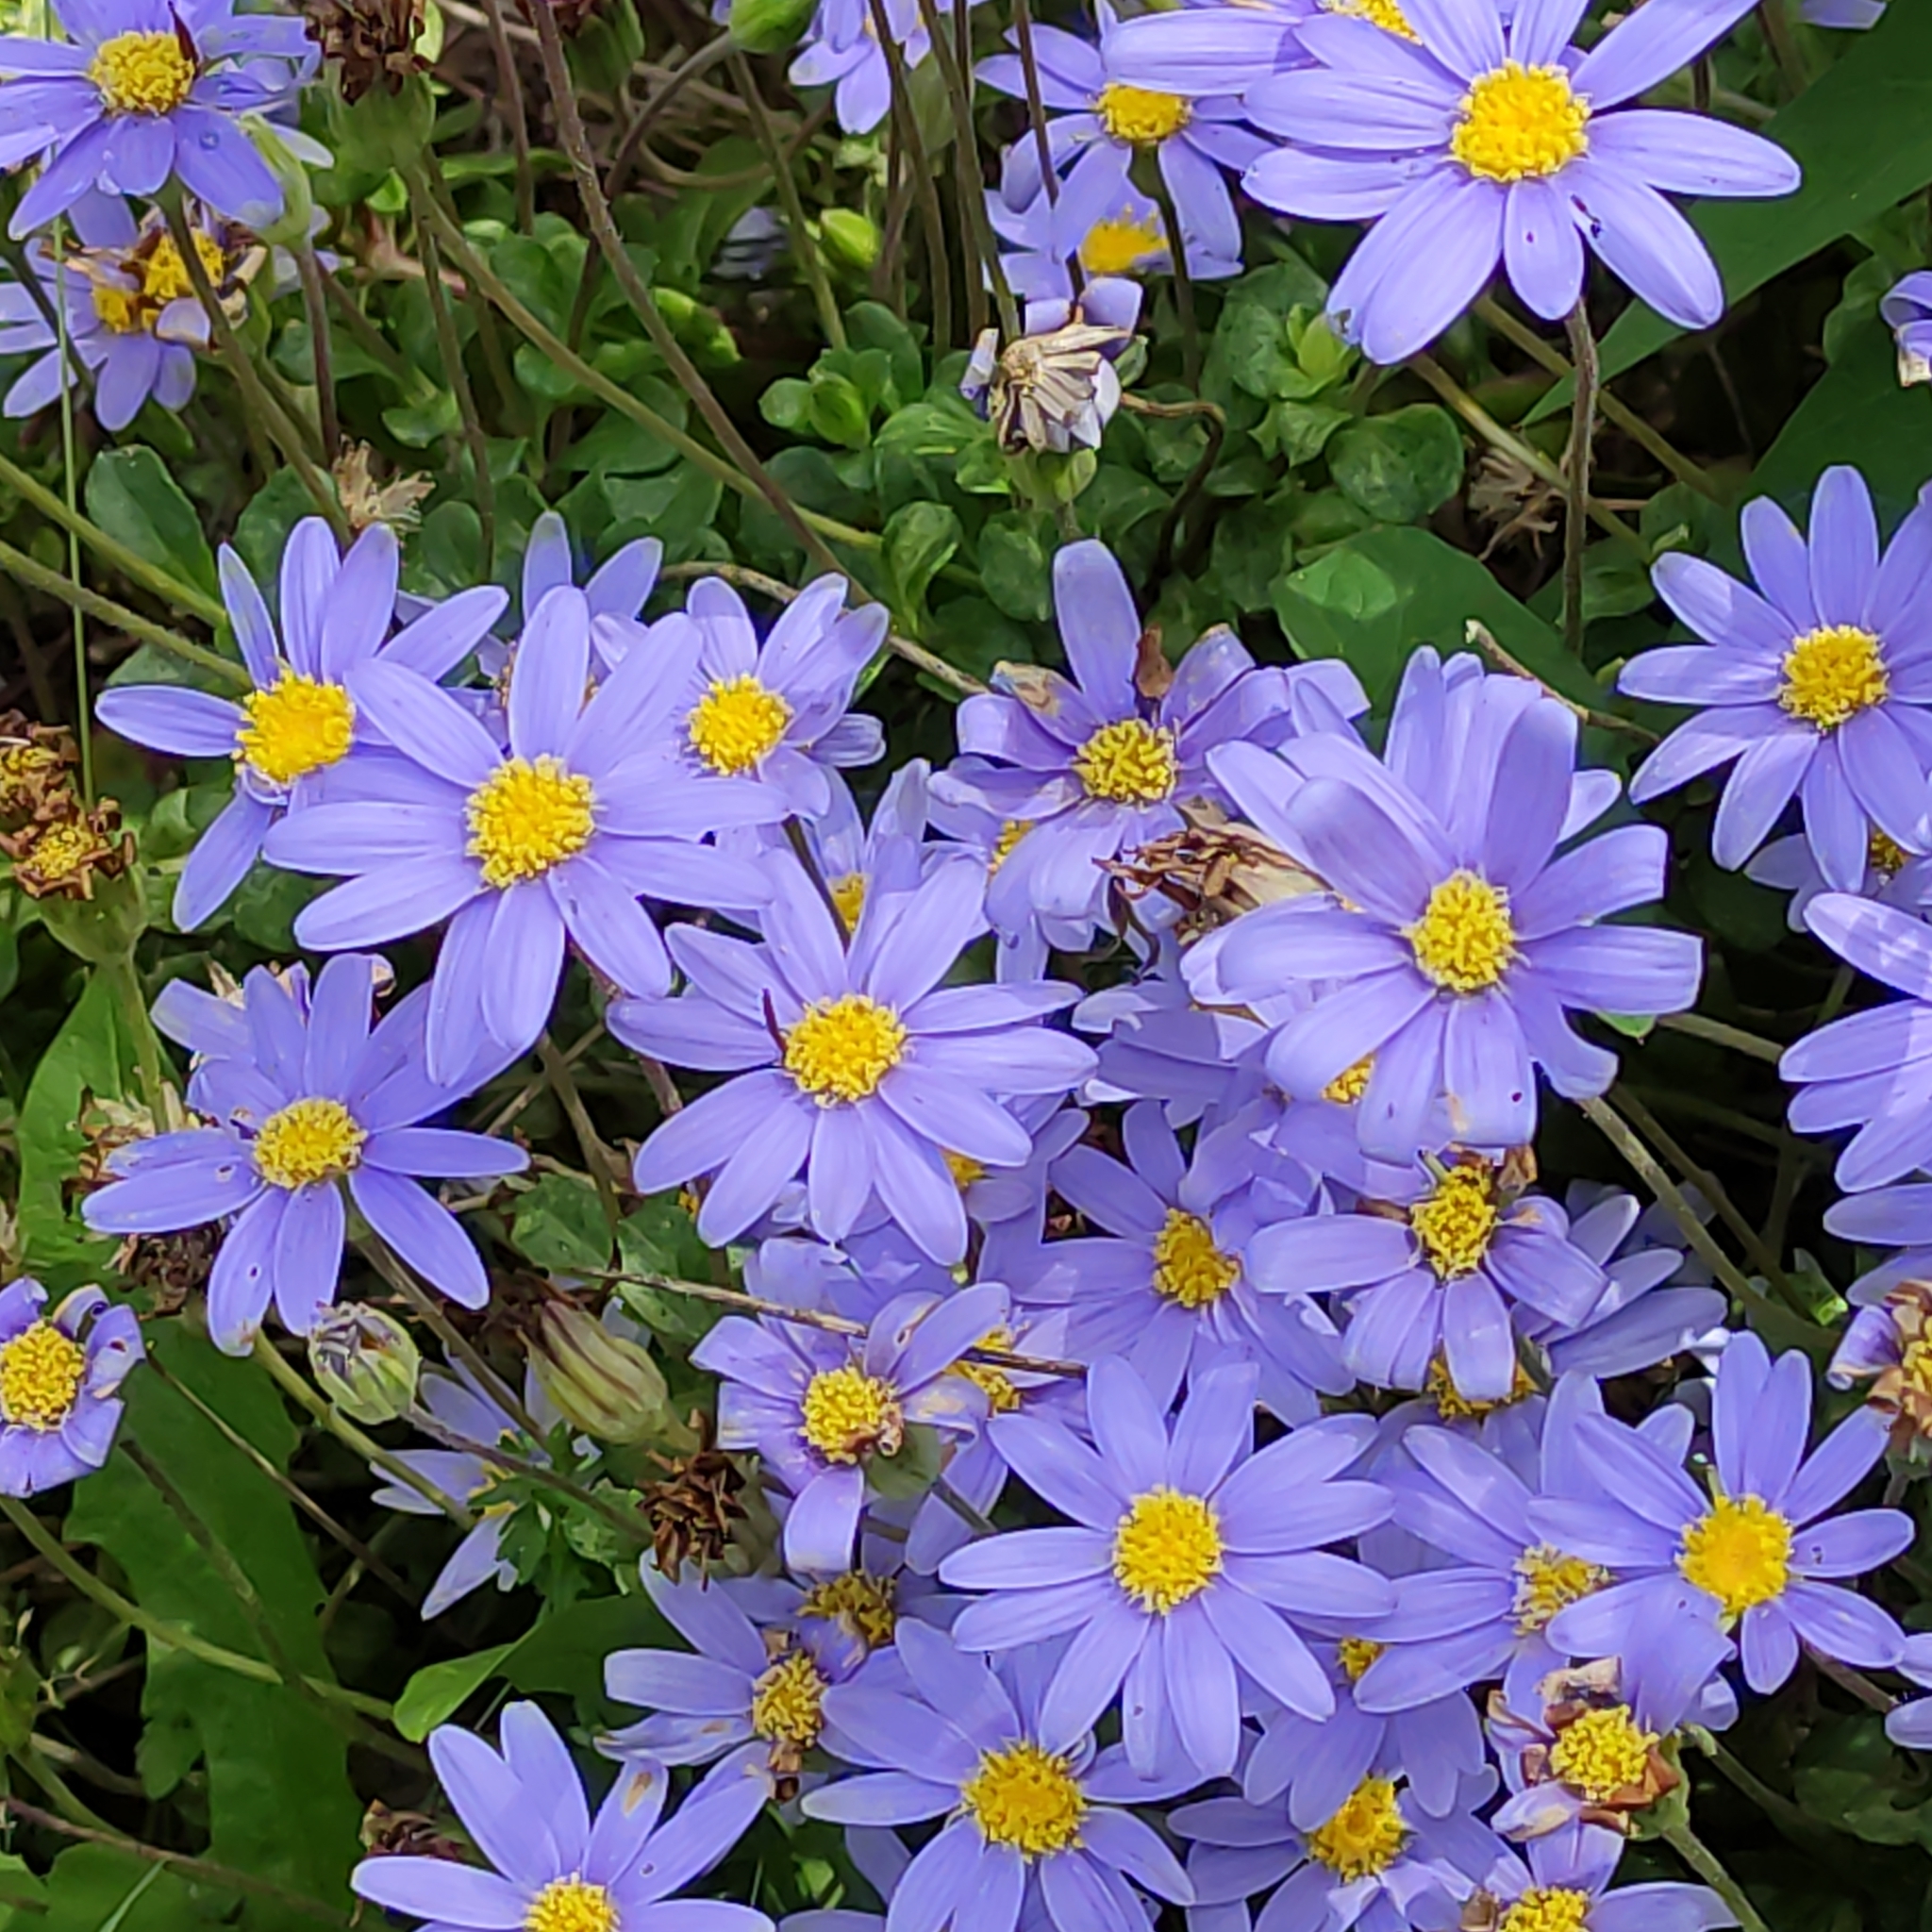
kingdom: Plantae
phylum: Tracheophyta
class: Magnoliopsida
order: Asterales
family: Asteraceae
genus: Felicia
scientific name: Felicia amelloides
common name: Blue marguerite
